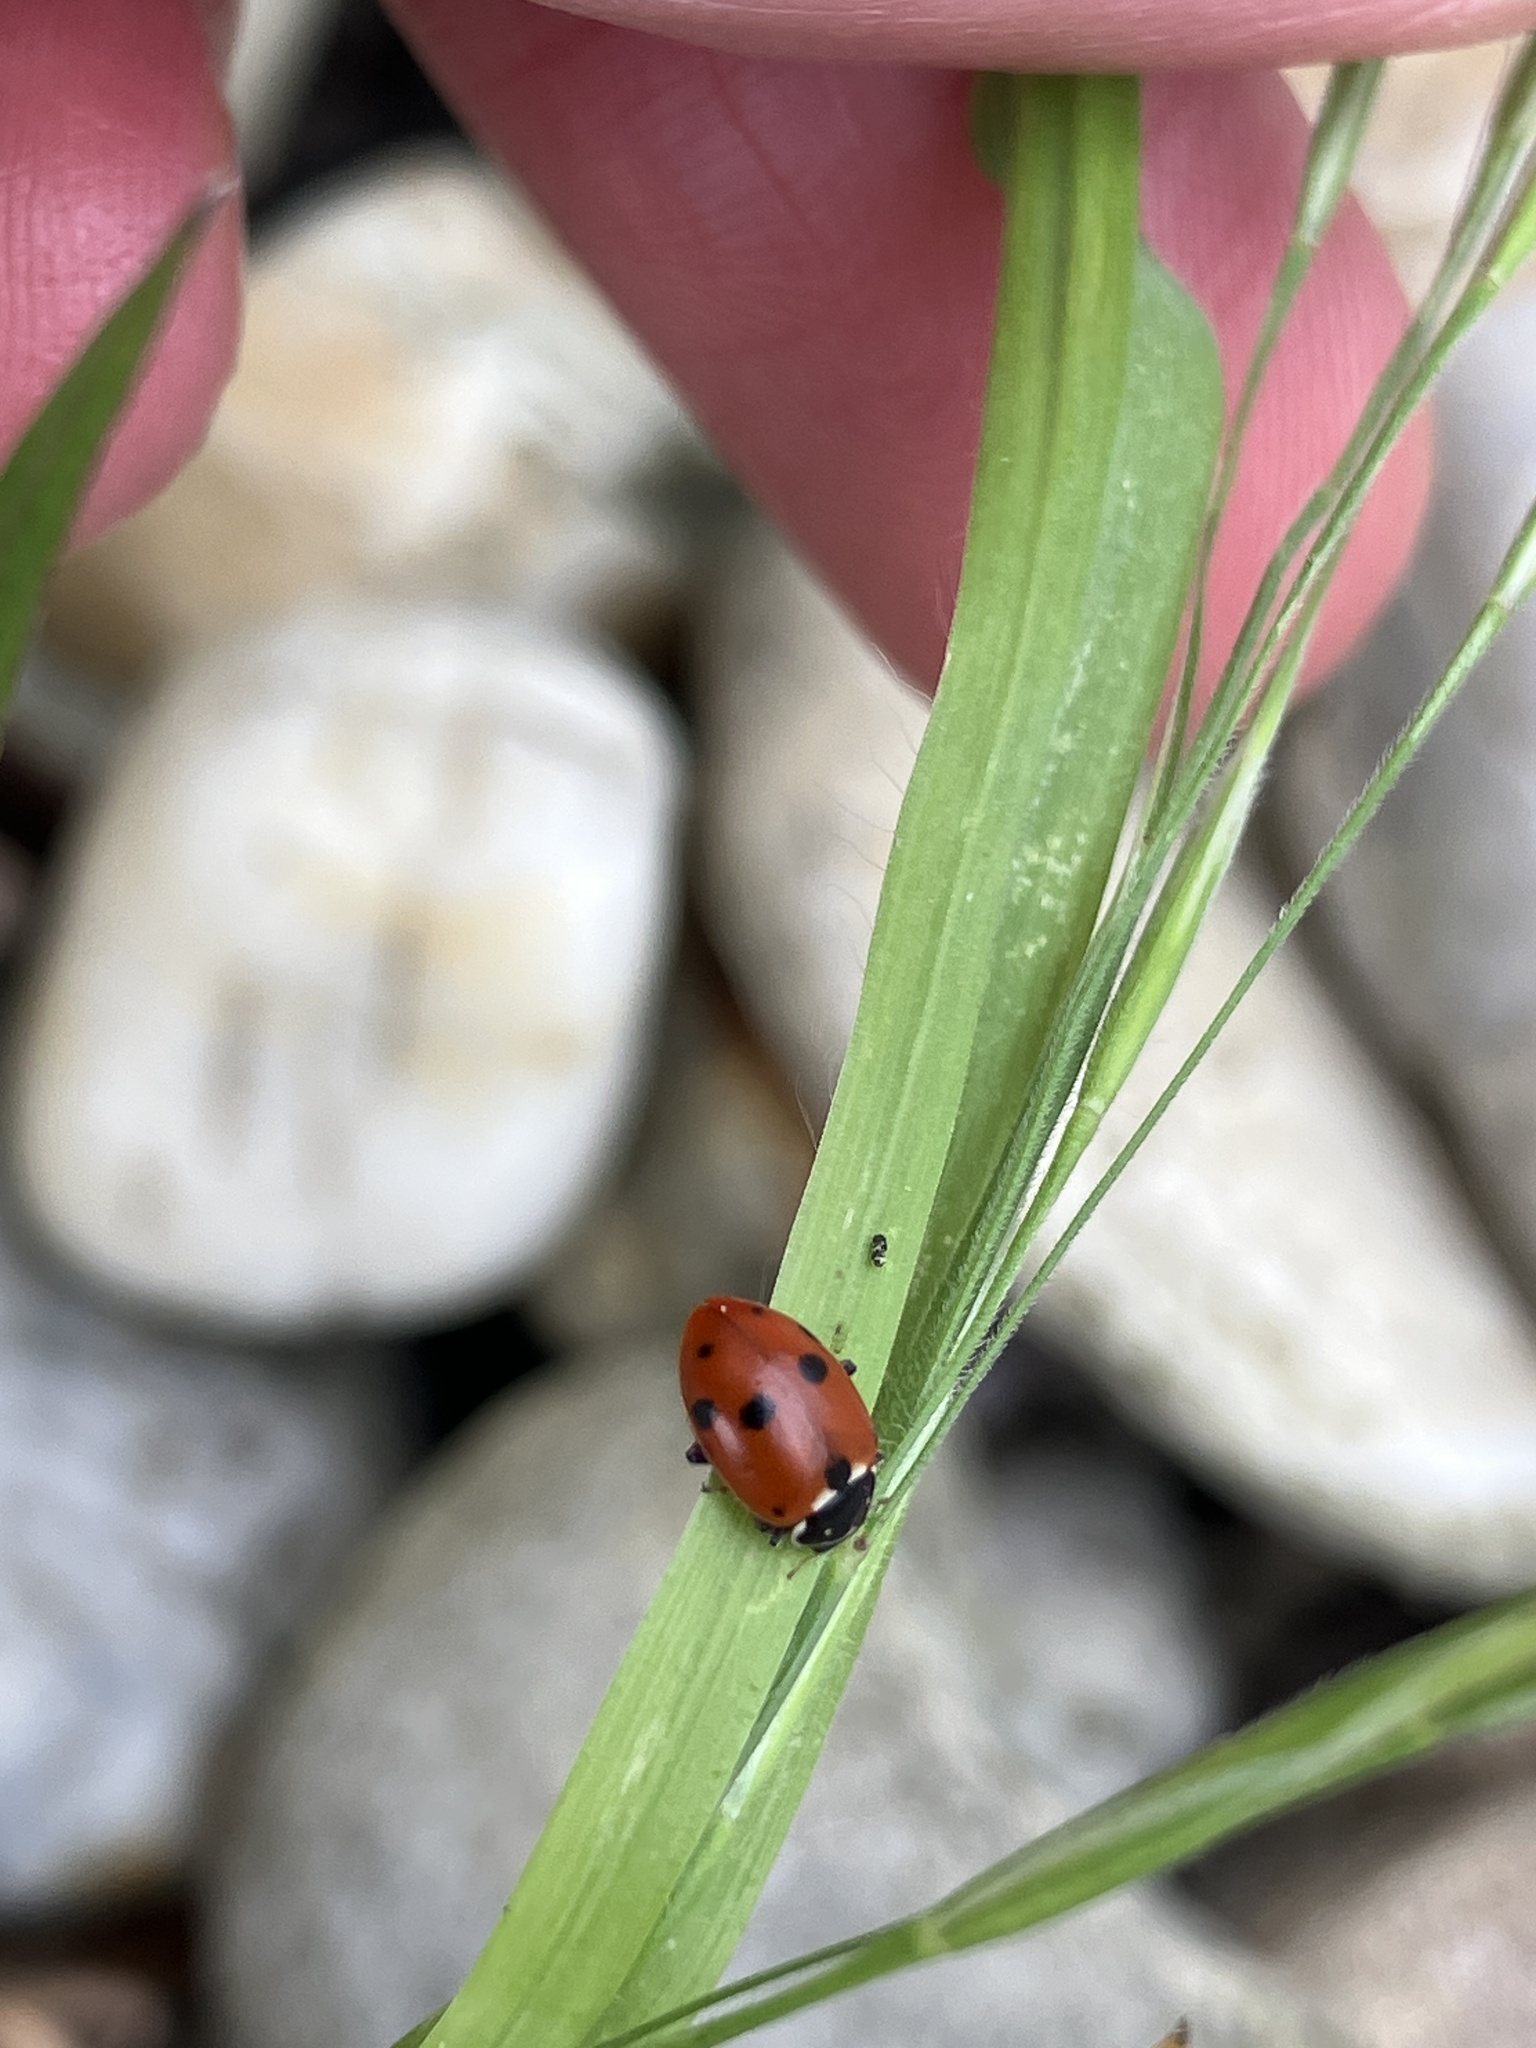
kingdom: Animalia
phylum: Arthropoda
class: Insecta
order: Coleoptera
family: Coccinellidae
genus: Hippodamia
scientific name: Hippodamia variegata
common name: Ladybird beetle
